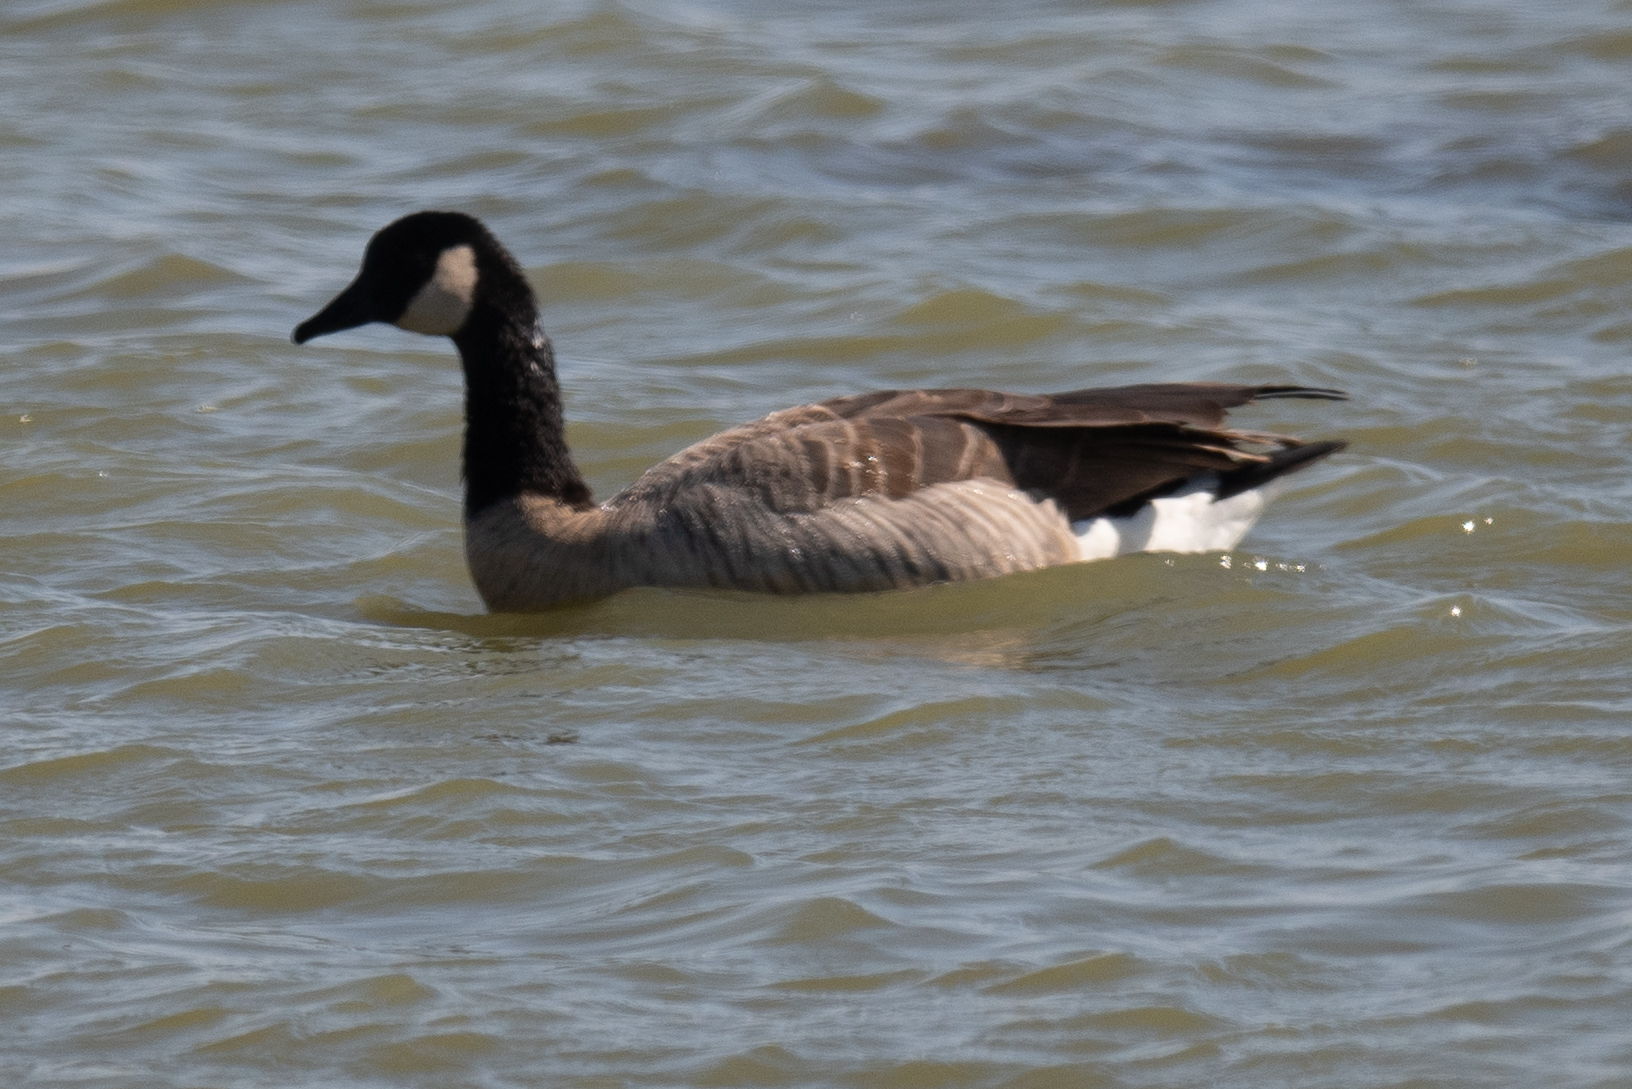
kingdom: Animalia
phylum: Chordata
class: Aves
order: Anseriformes
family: Anatidae
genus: Branta
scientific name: Branta canadensis
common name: Canada goose
